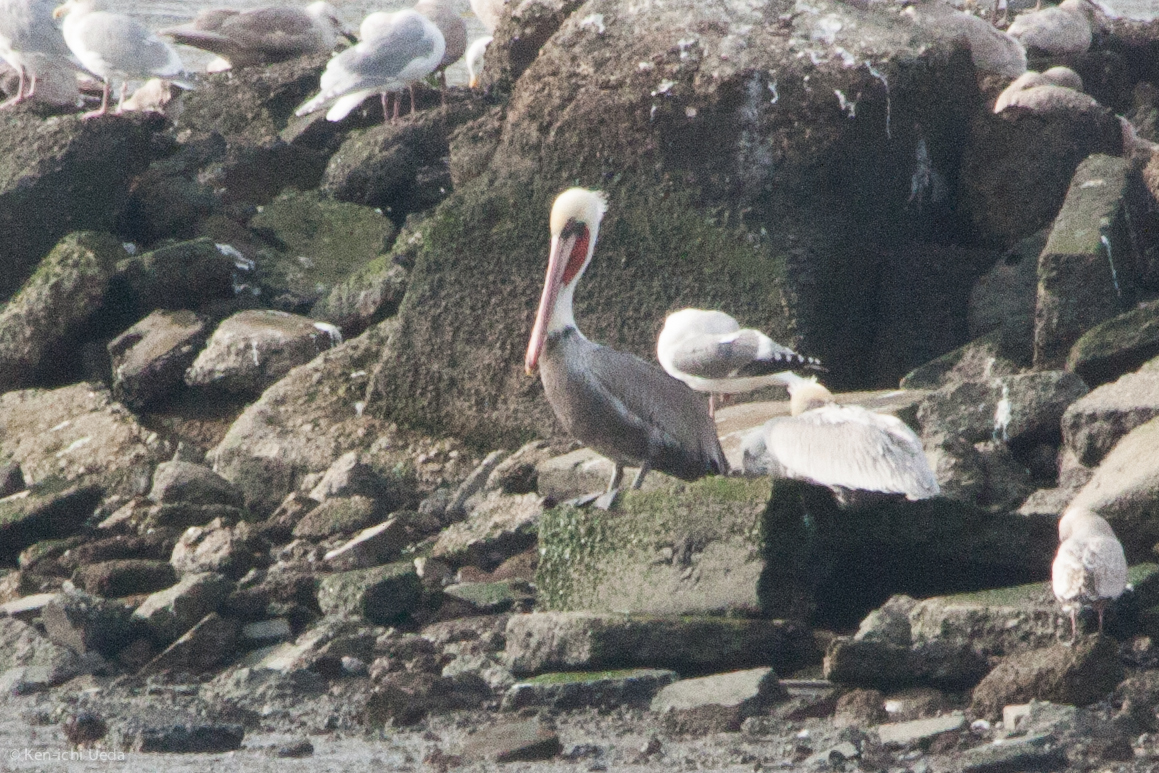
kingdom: Animalia
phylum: Chordata
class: Aves
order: Pelecaniformes
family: Pelecanidae
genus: Pelecanus
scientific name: Pelecanus occidentalis
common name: Brown pelican
